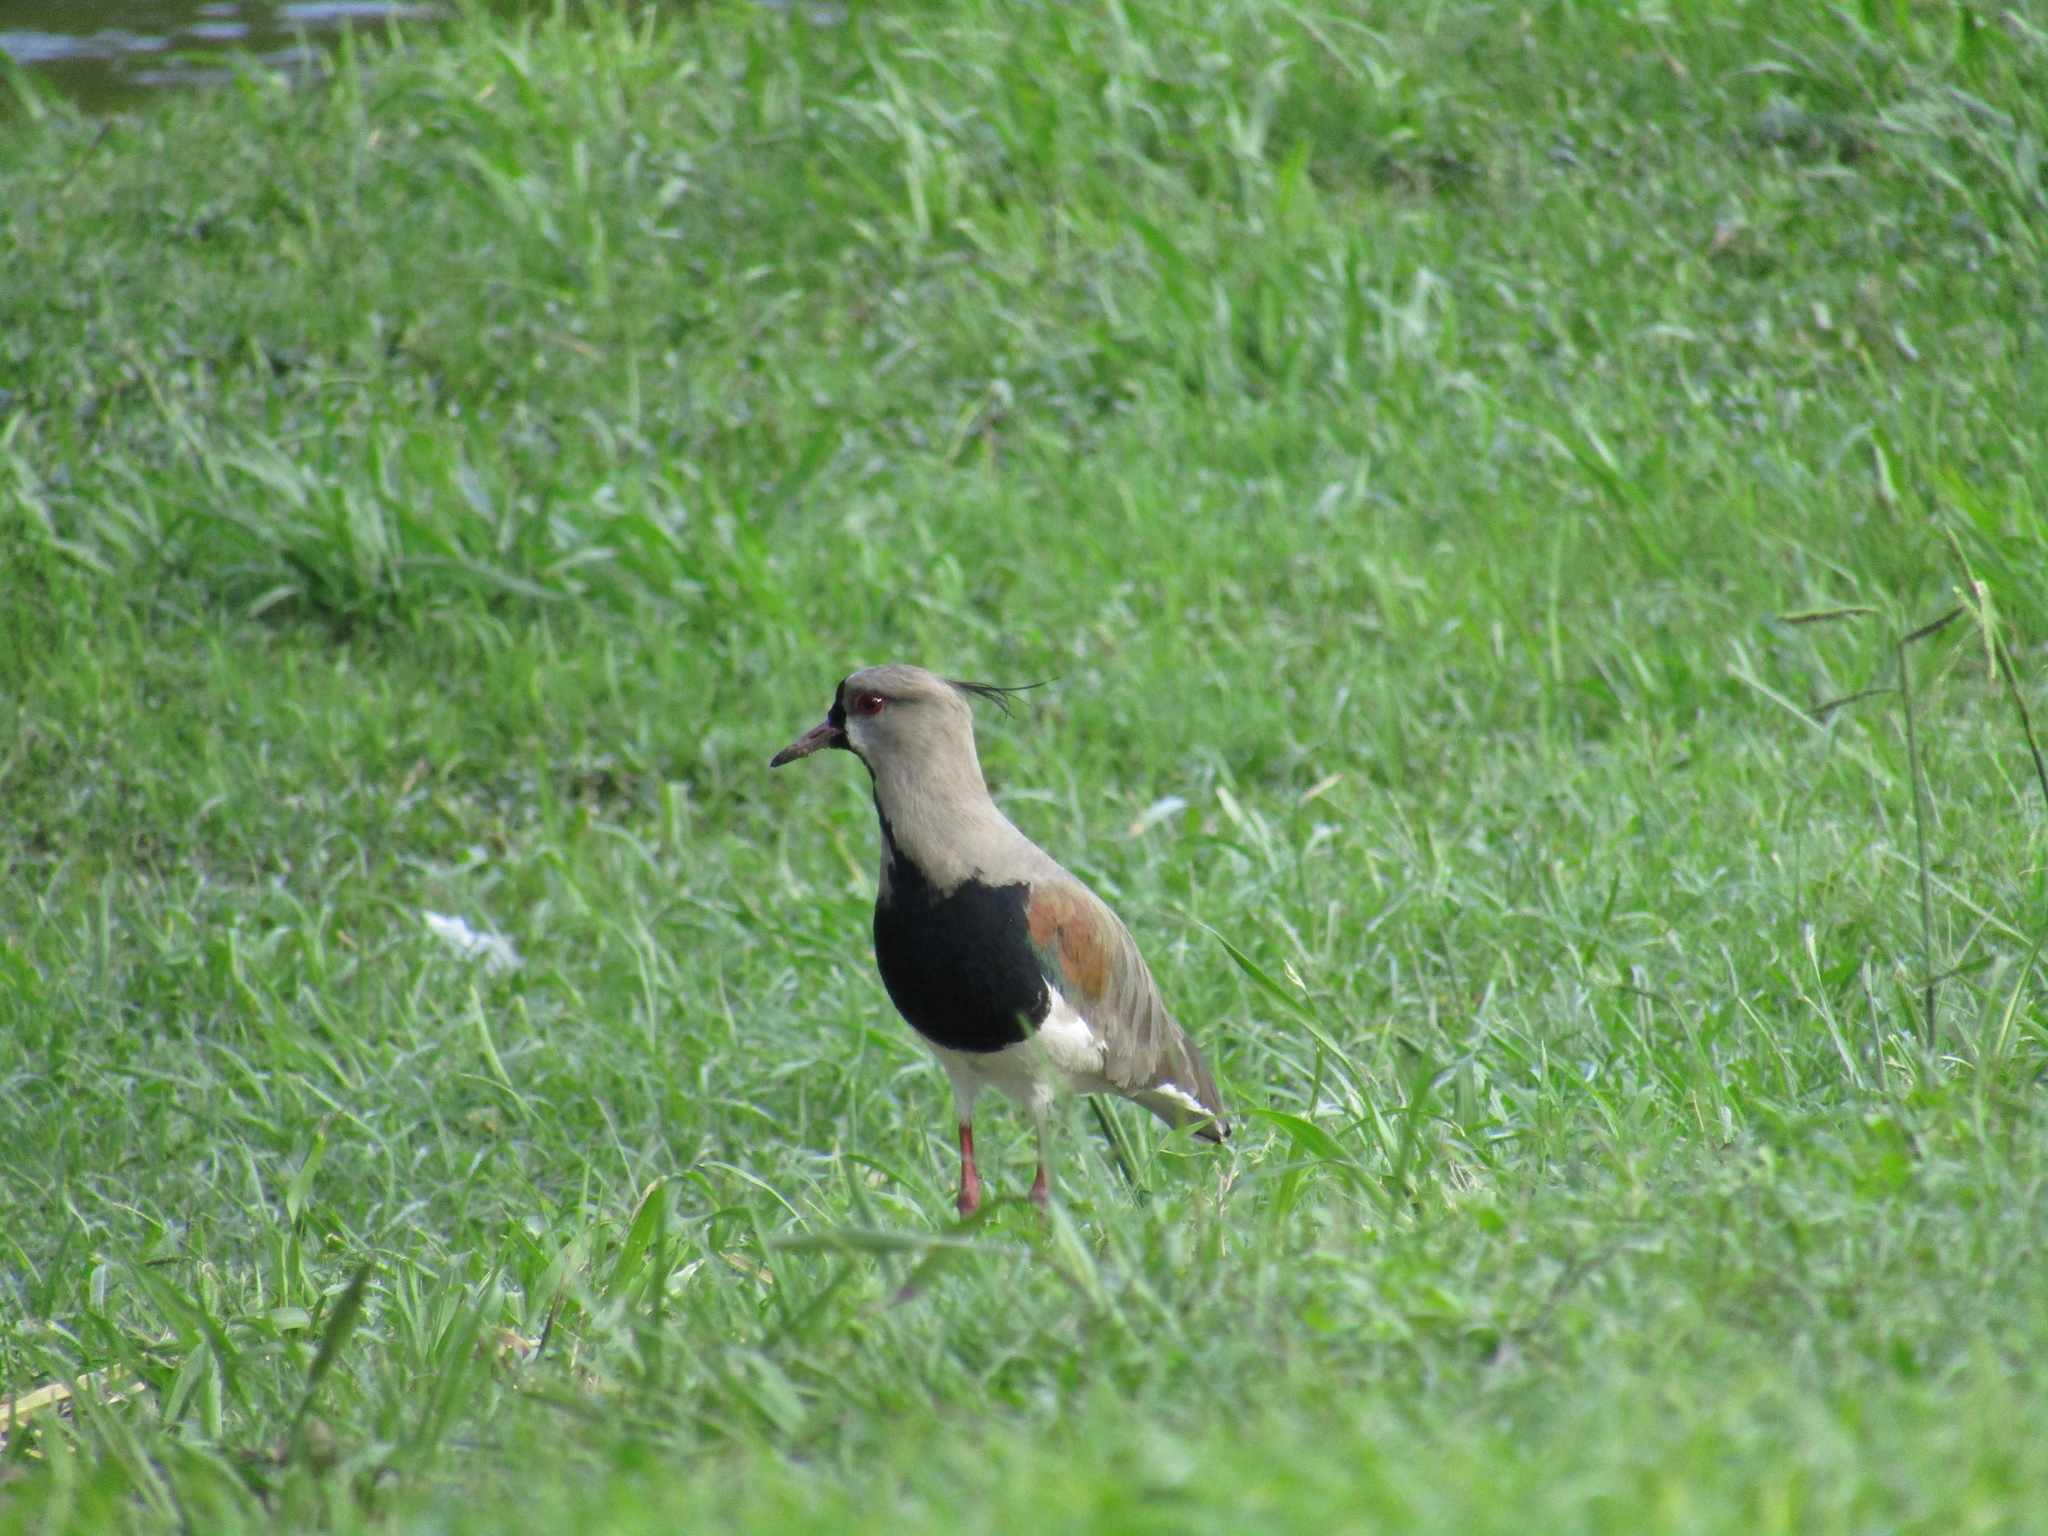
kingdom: Animalia
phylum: Chordata
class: Aves
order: Charadriiformes
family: Charadriidae
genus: Vanellus
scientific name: Vanellus chilensis
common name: Southern lapwing
